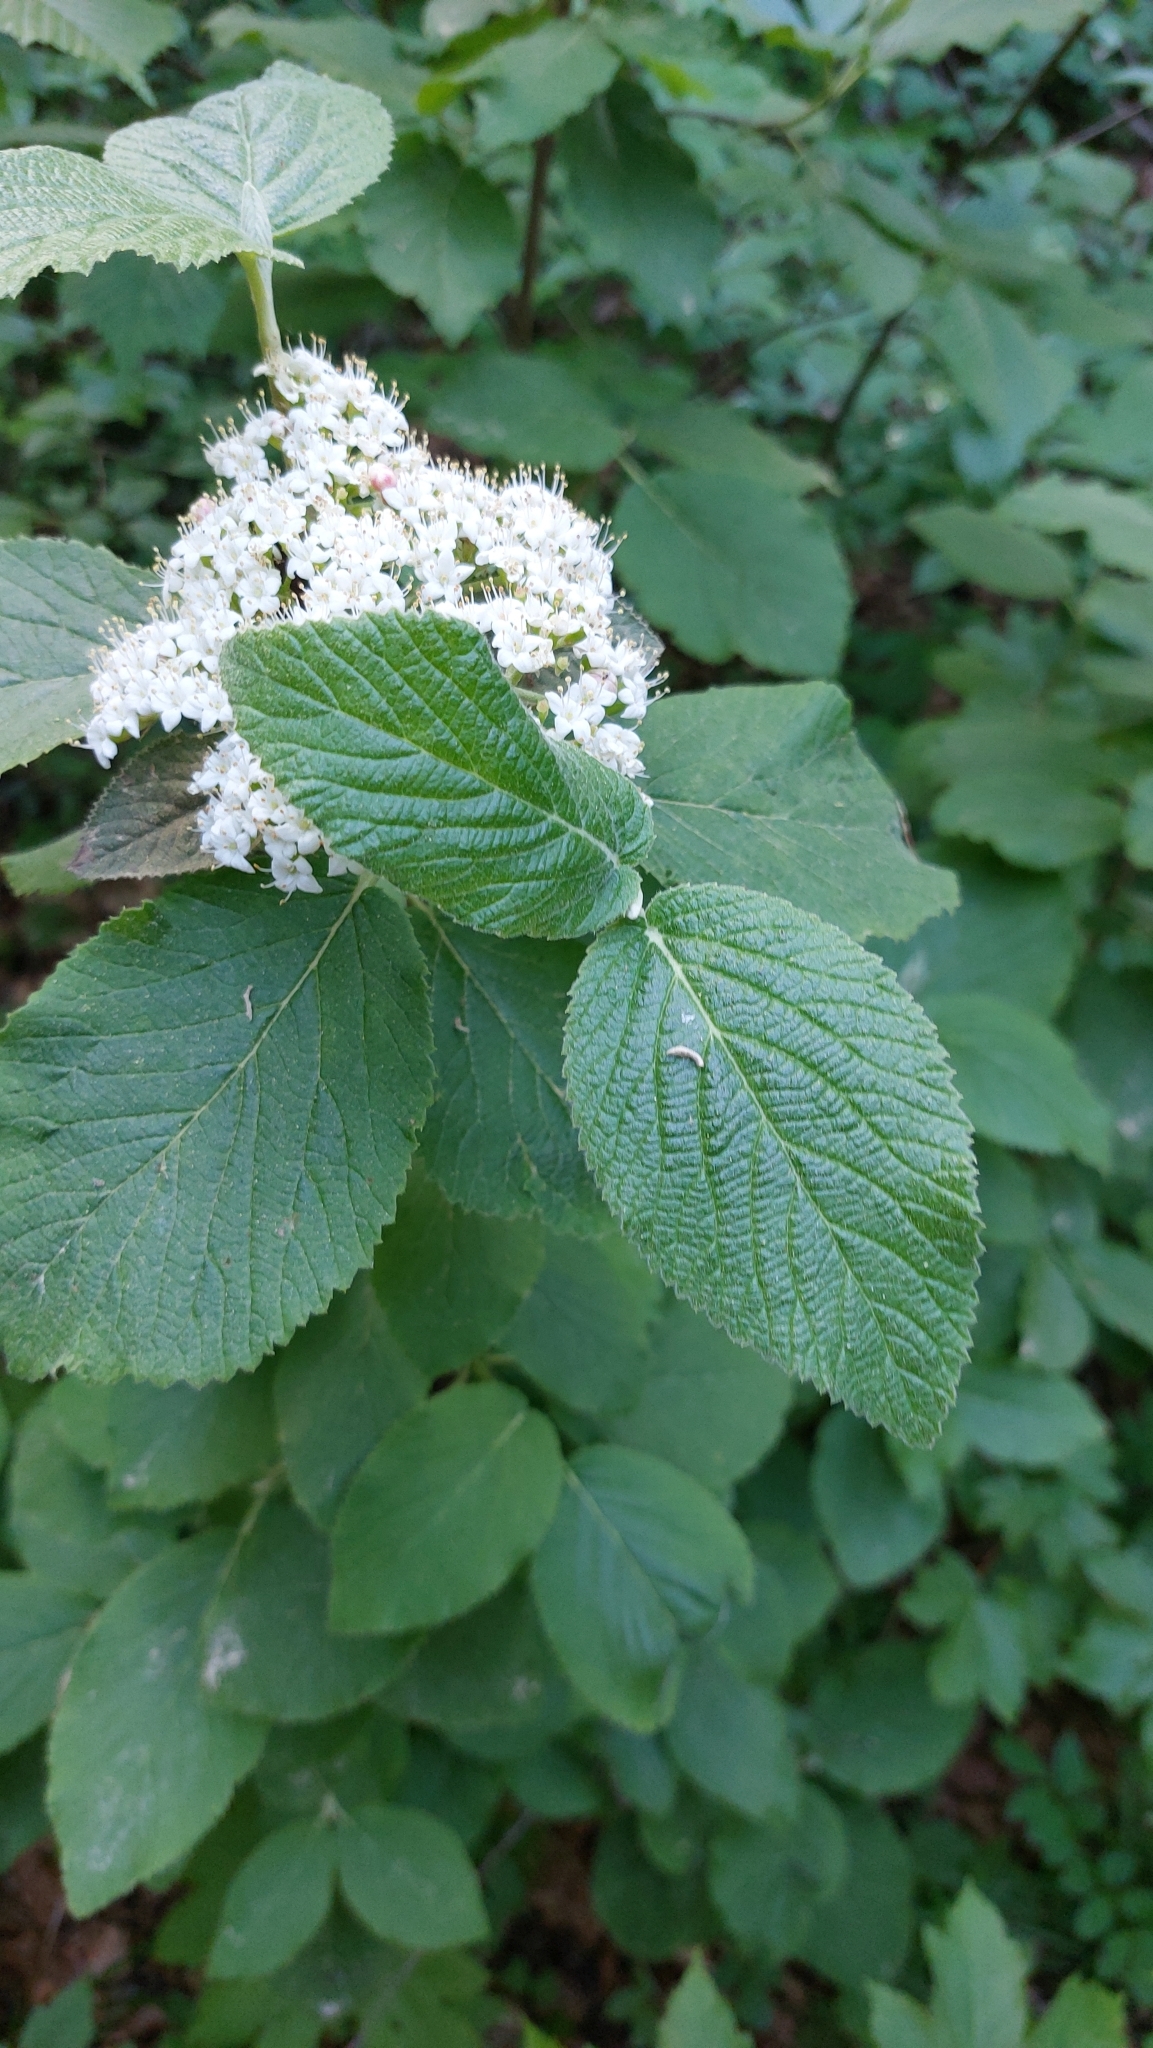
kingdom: Plantae
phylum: Tracheophyta
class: Magnoliopsida
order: Dipsacales
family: Viburnaceae
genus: Viburnum
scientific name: Viburnum lantana
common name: Wayfaring tree
